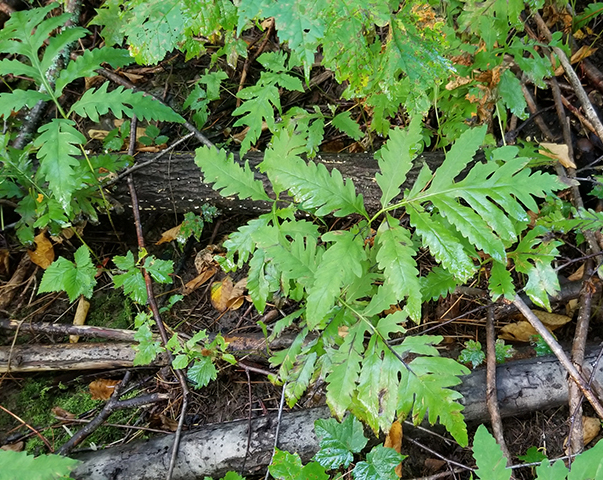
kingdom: Plantae
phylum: Tracheophyta
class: Polypodiopsida
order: Polypodiales
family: Onocleaceae
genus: Onoclea
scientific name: Onoclea sensibilis
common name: Sensitive fern
